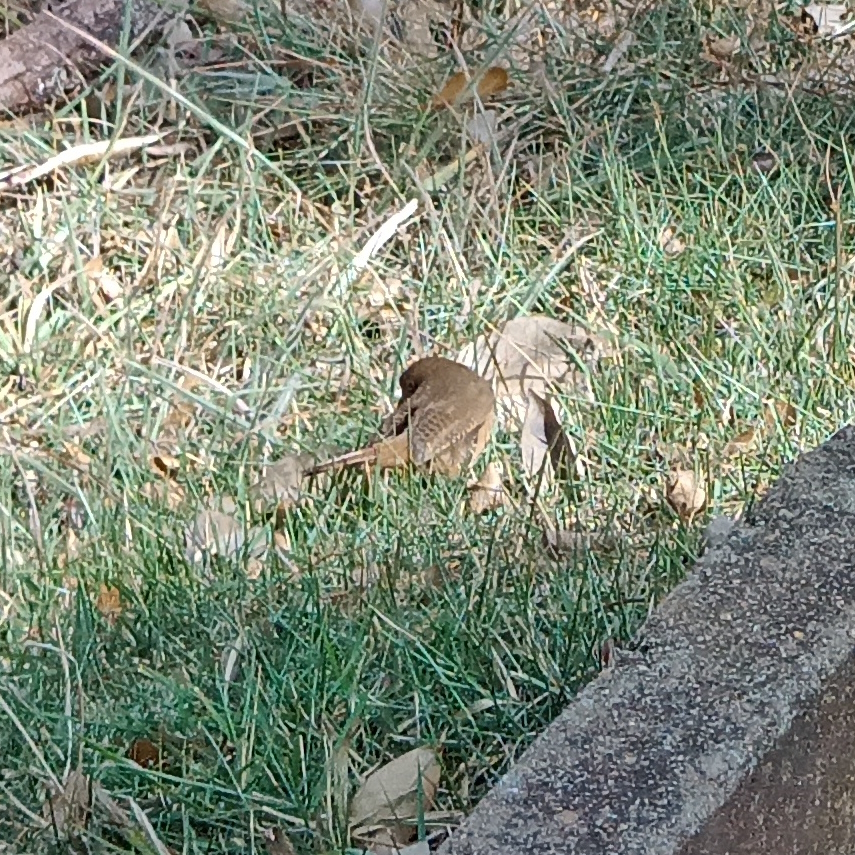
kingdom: Animalia
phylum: Chordata
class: Aves
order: Passeriformes
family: Troglodytidae
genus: Troglodytes
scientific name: Troglodytes aedon
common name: House wren
